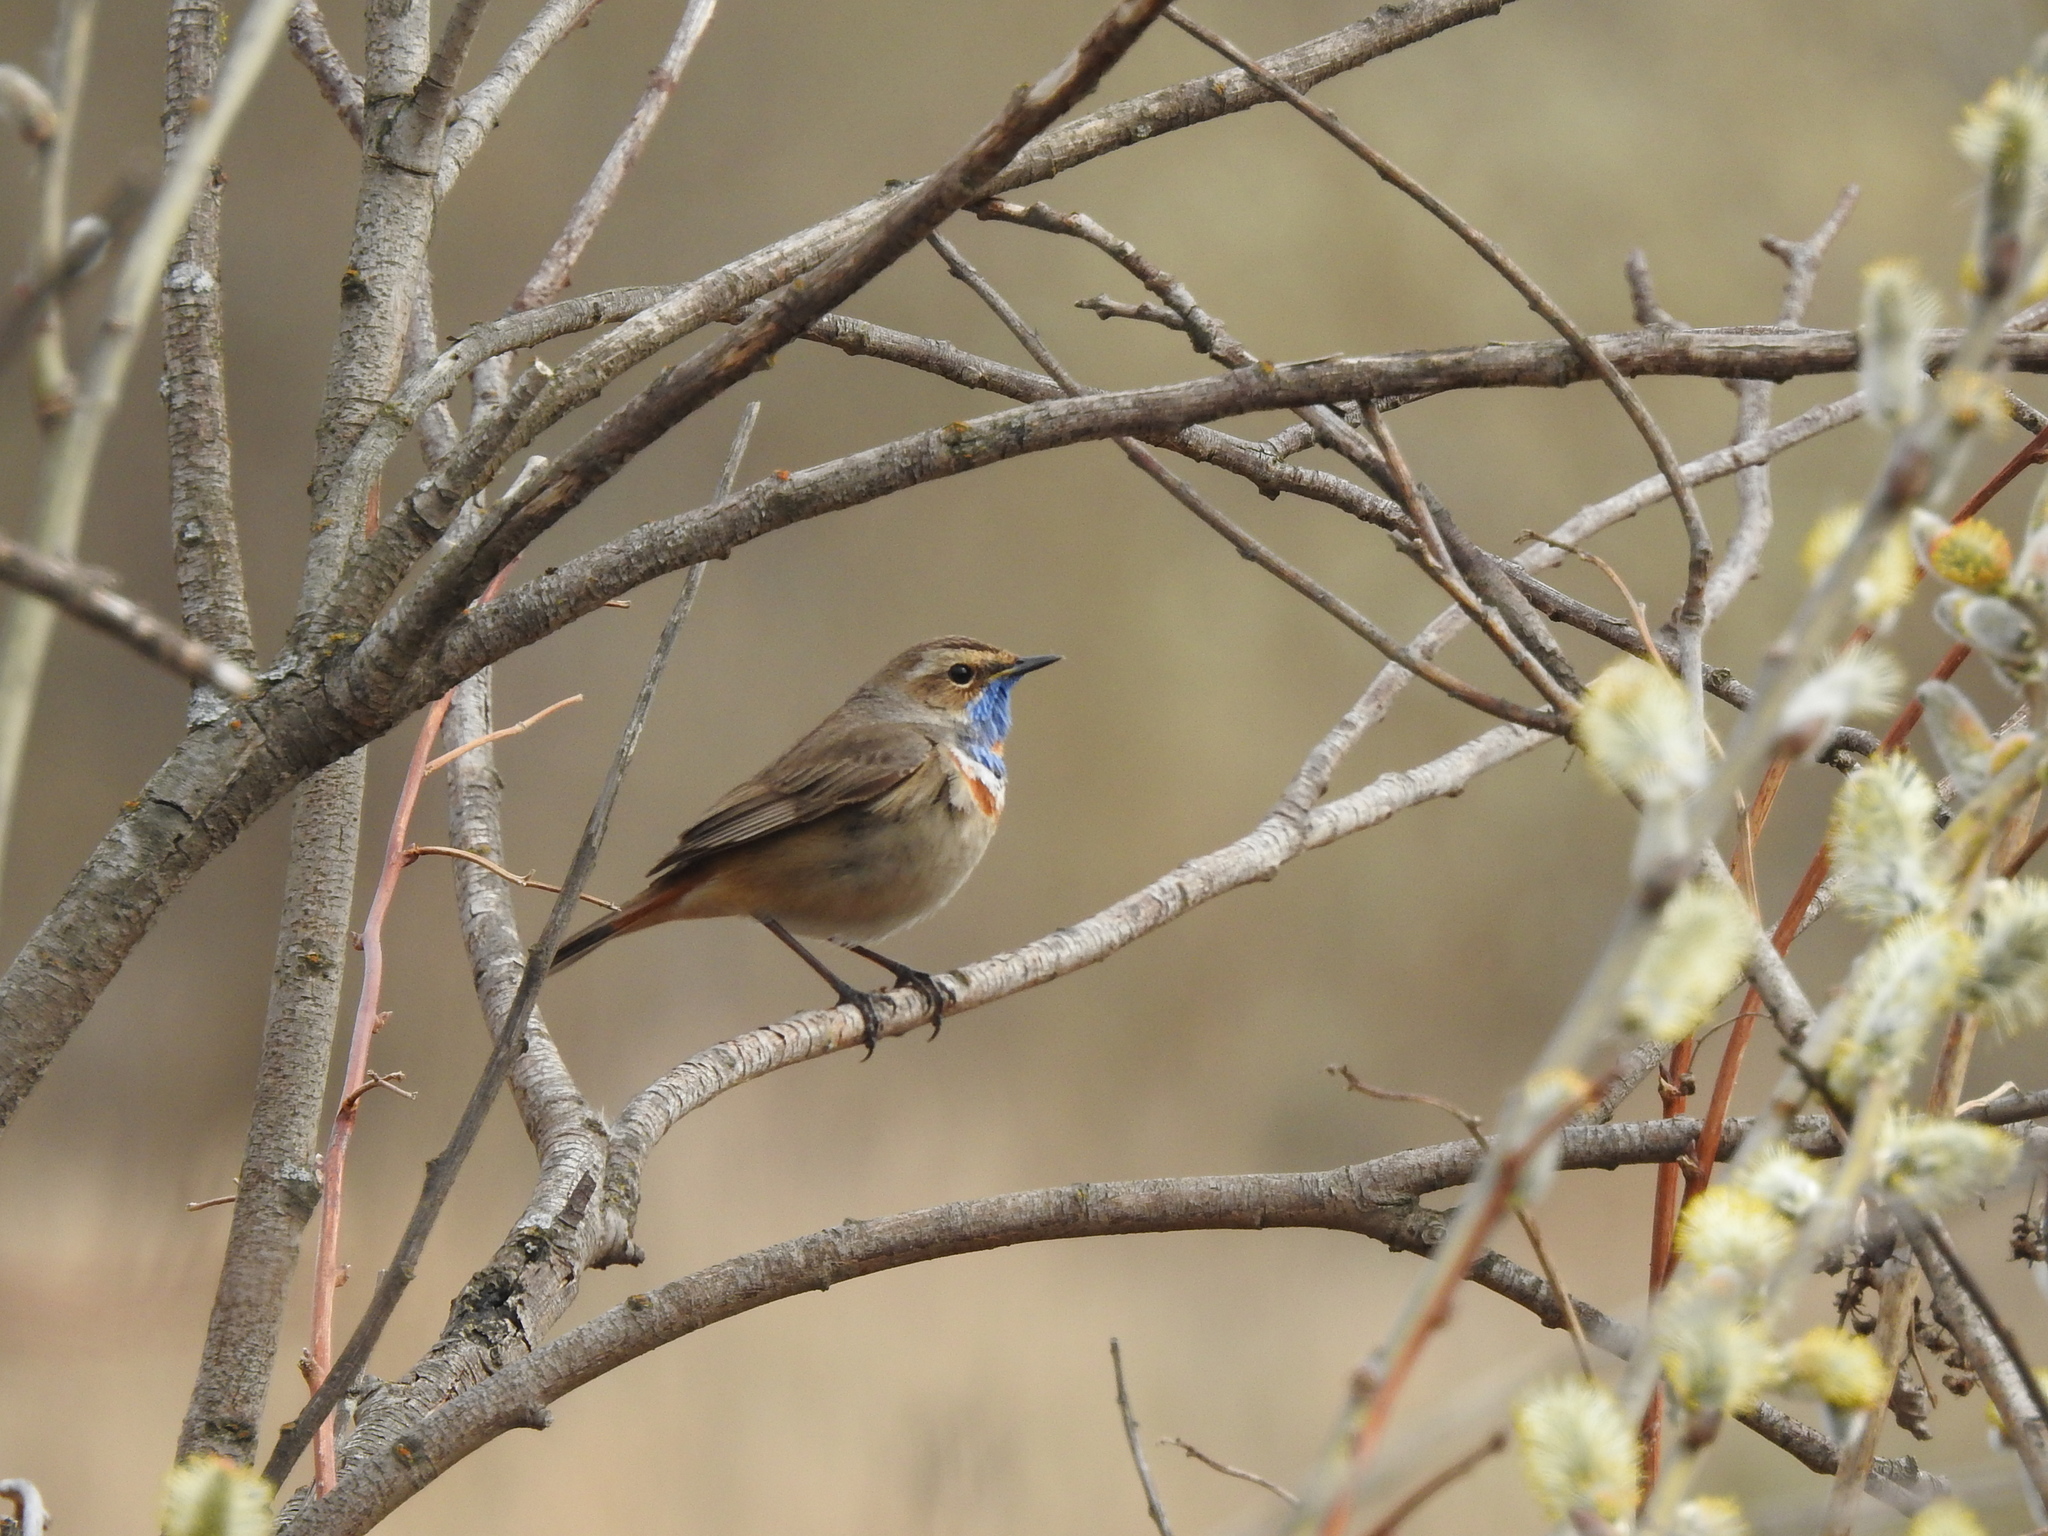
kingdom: Animalia
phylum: Chordata
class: Aves
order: Passeriformes
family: Muscicapidae
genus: Luscinia
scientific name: Luscinia svecica
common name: Bluethroat
